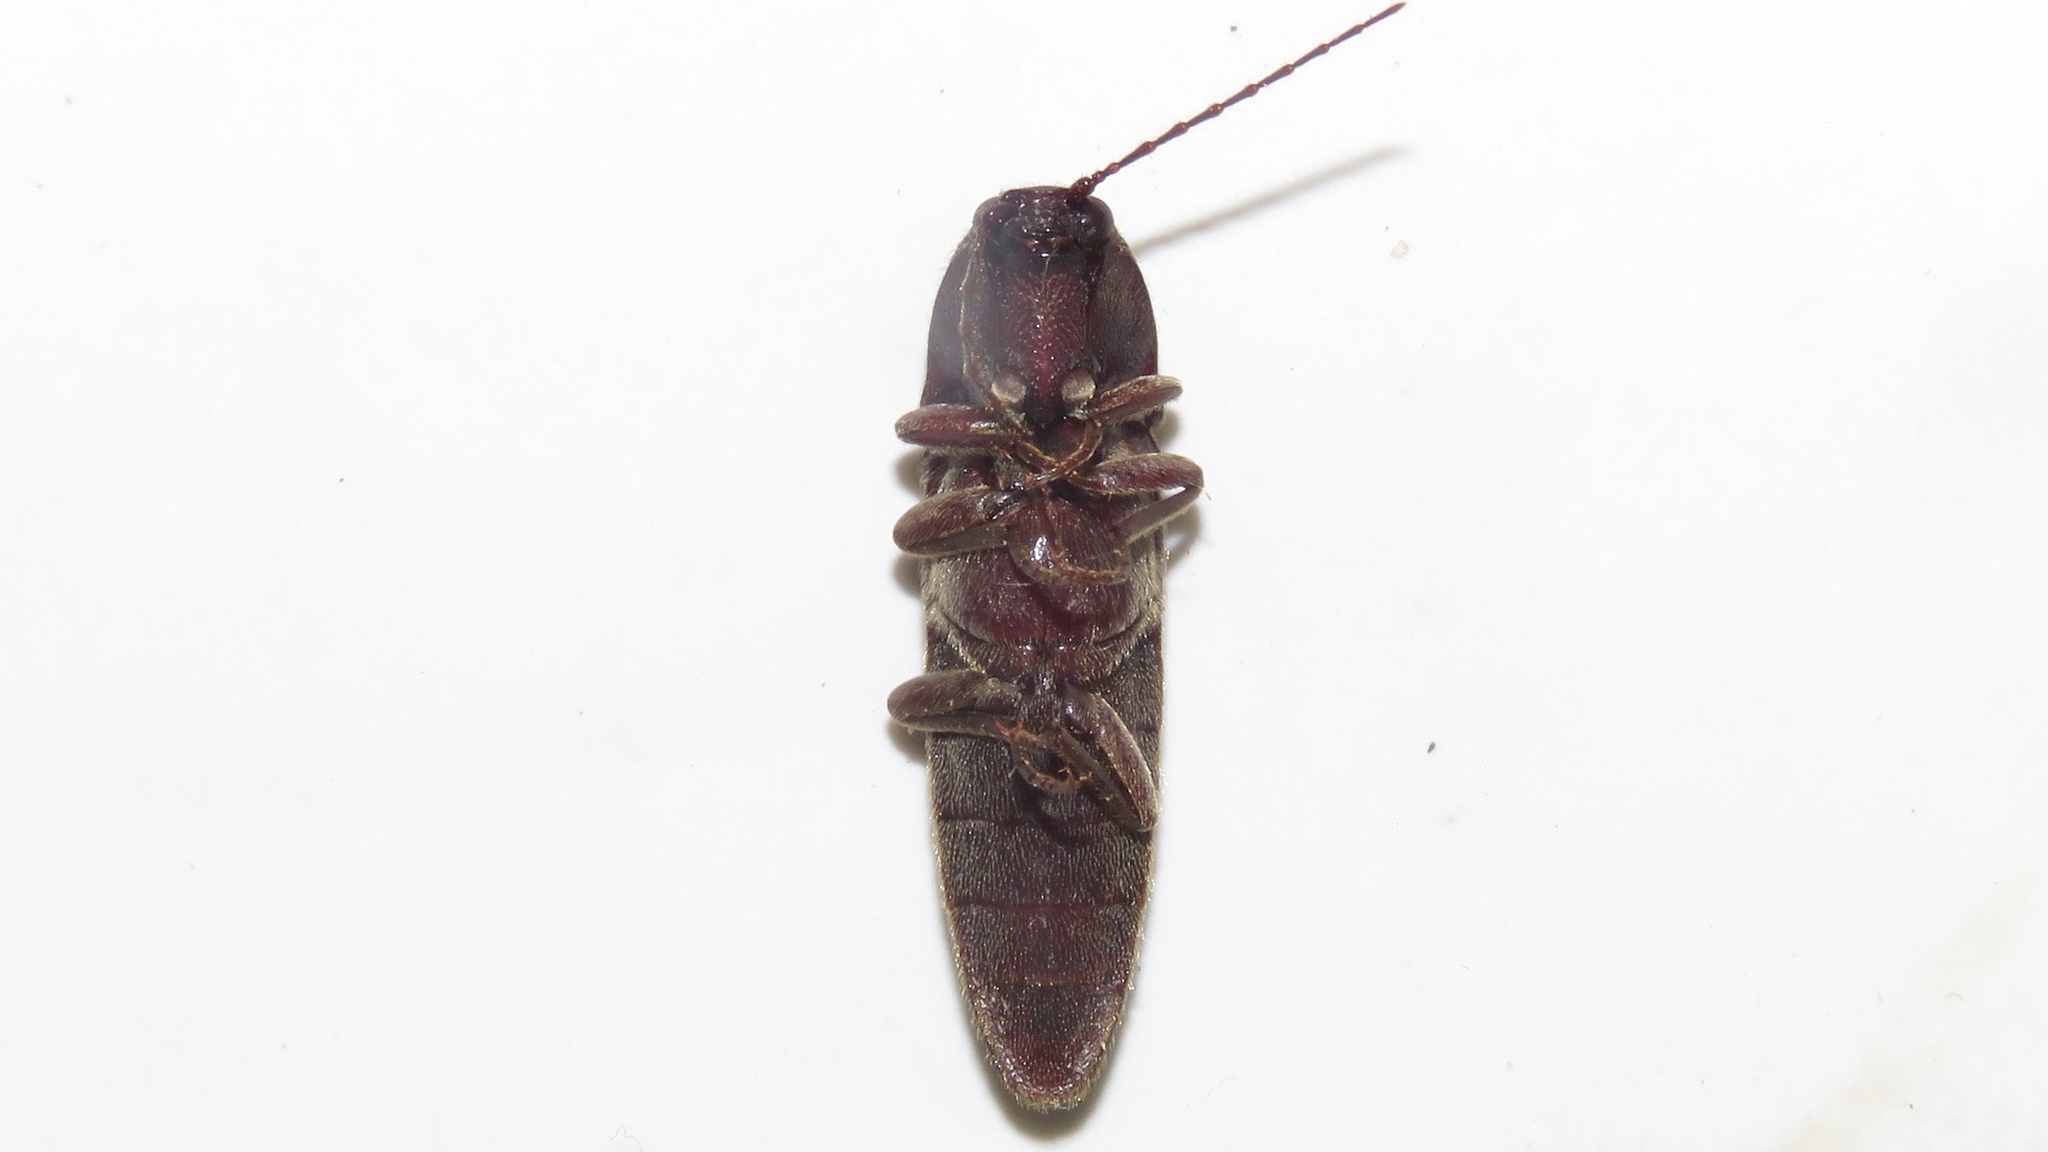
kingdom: Animalia
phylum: Arthropoda
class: Insecta
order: Coleoptera
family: Elateridae
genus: Melanotus
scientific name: Melanotus castanipes
